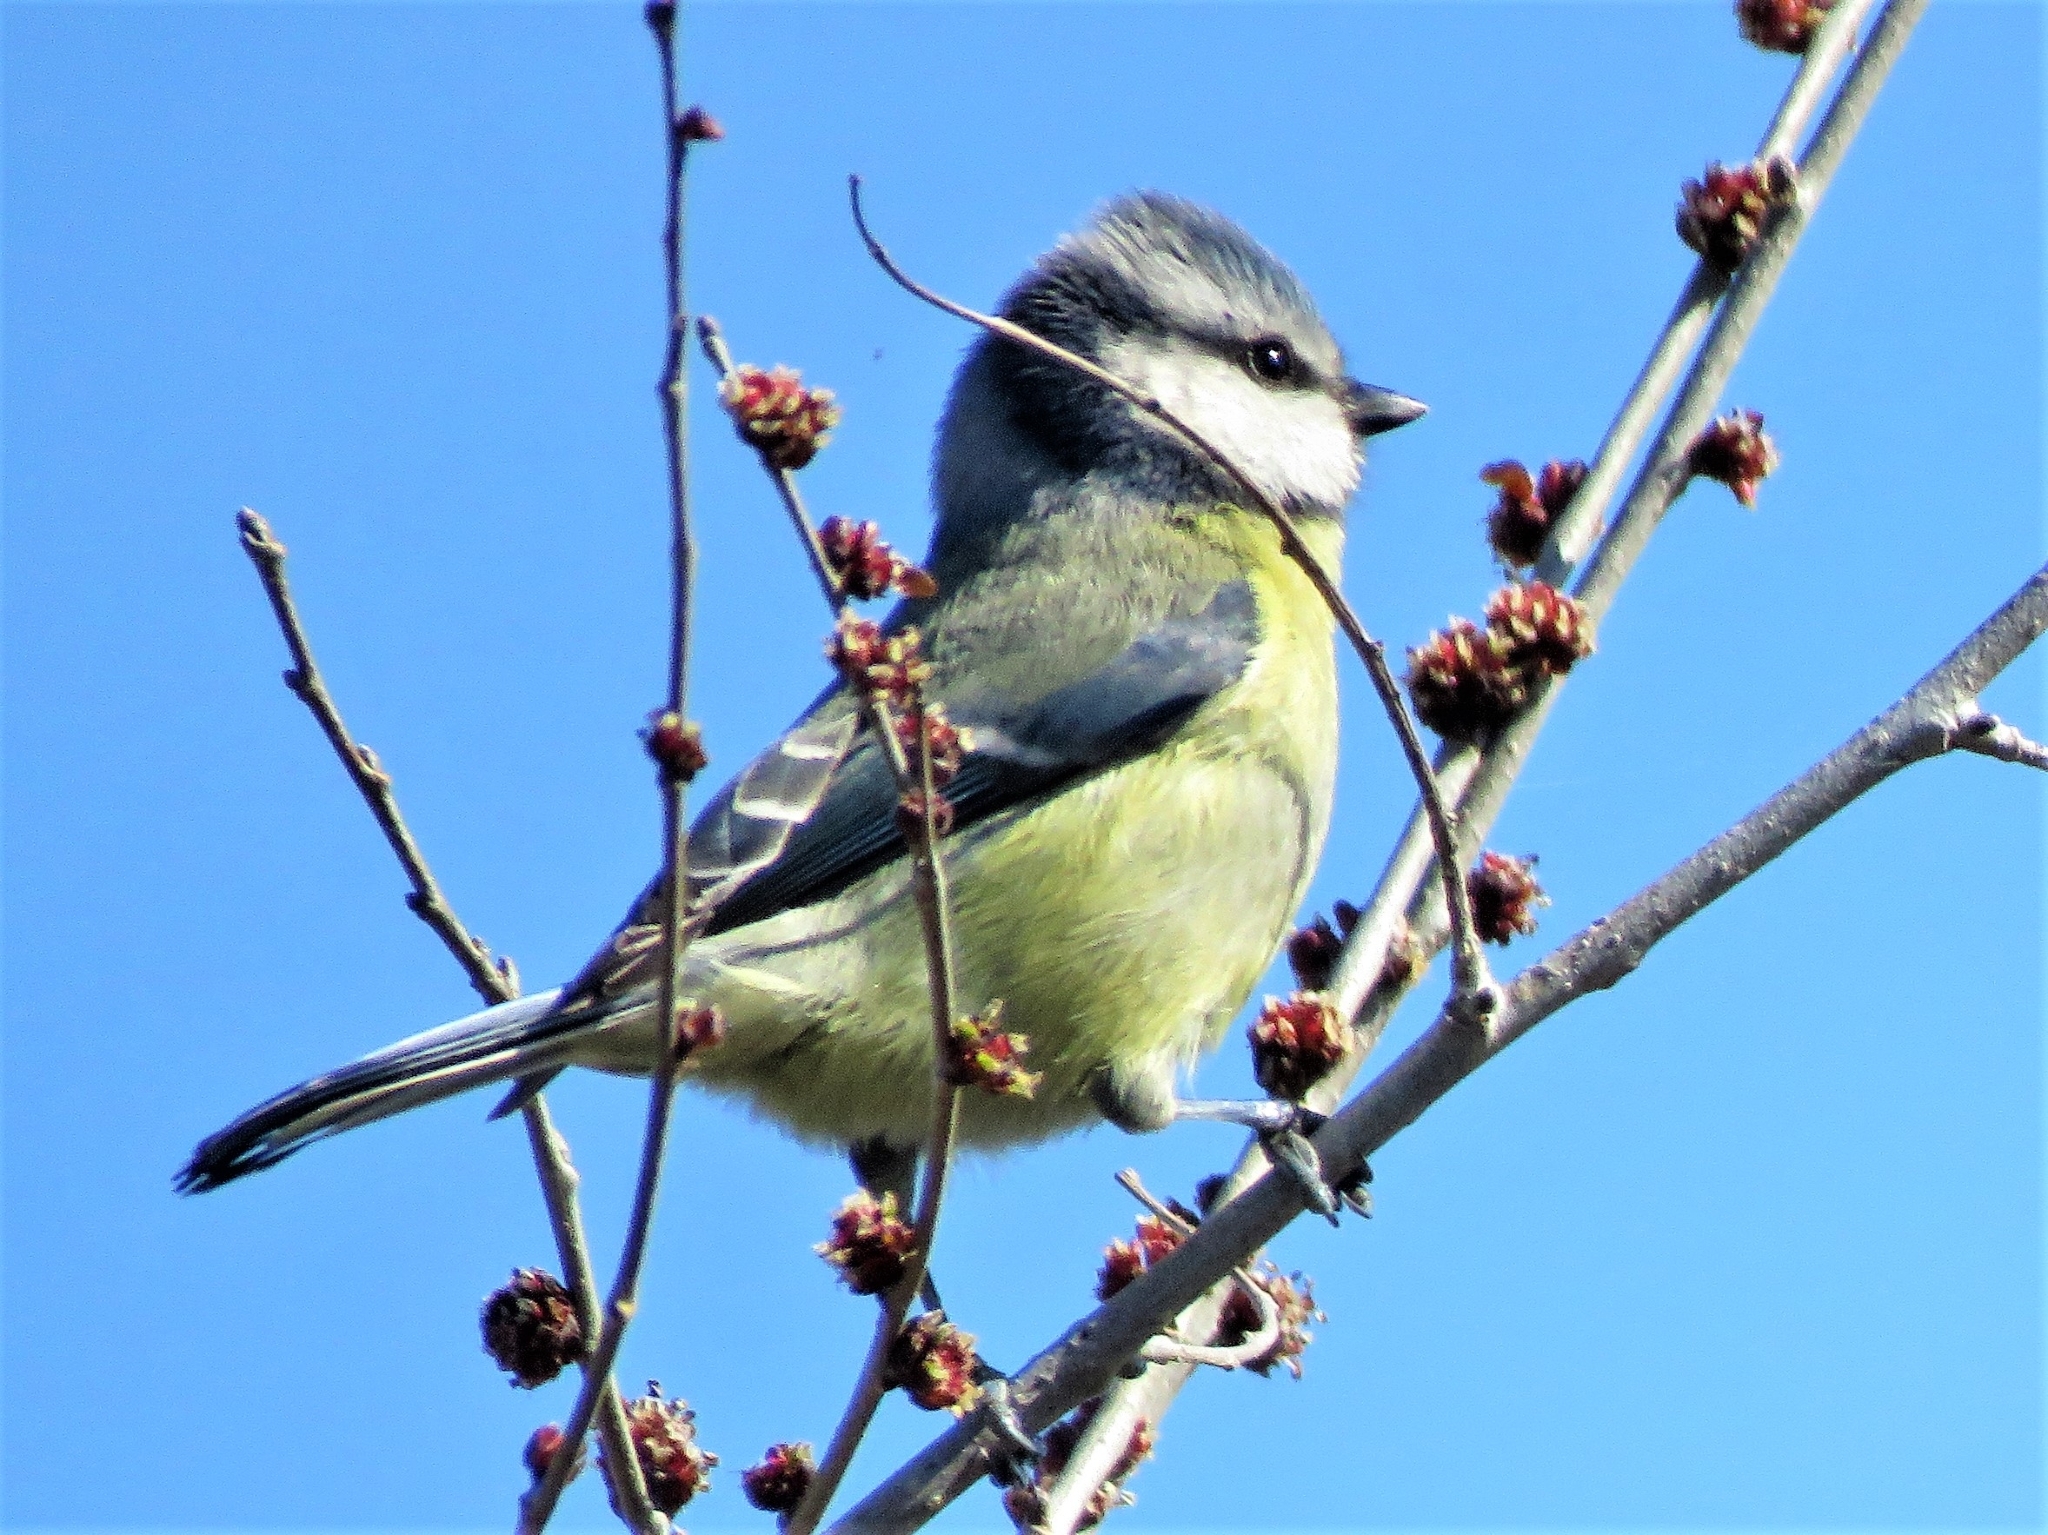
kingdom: Animalia
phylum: Chordata
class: Aves
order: Passeriformes
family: Paridae
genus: Cyanistes
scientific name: Cyanistes caeruleus
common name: Eurasian blue tit
